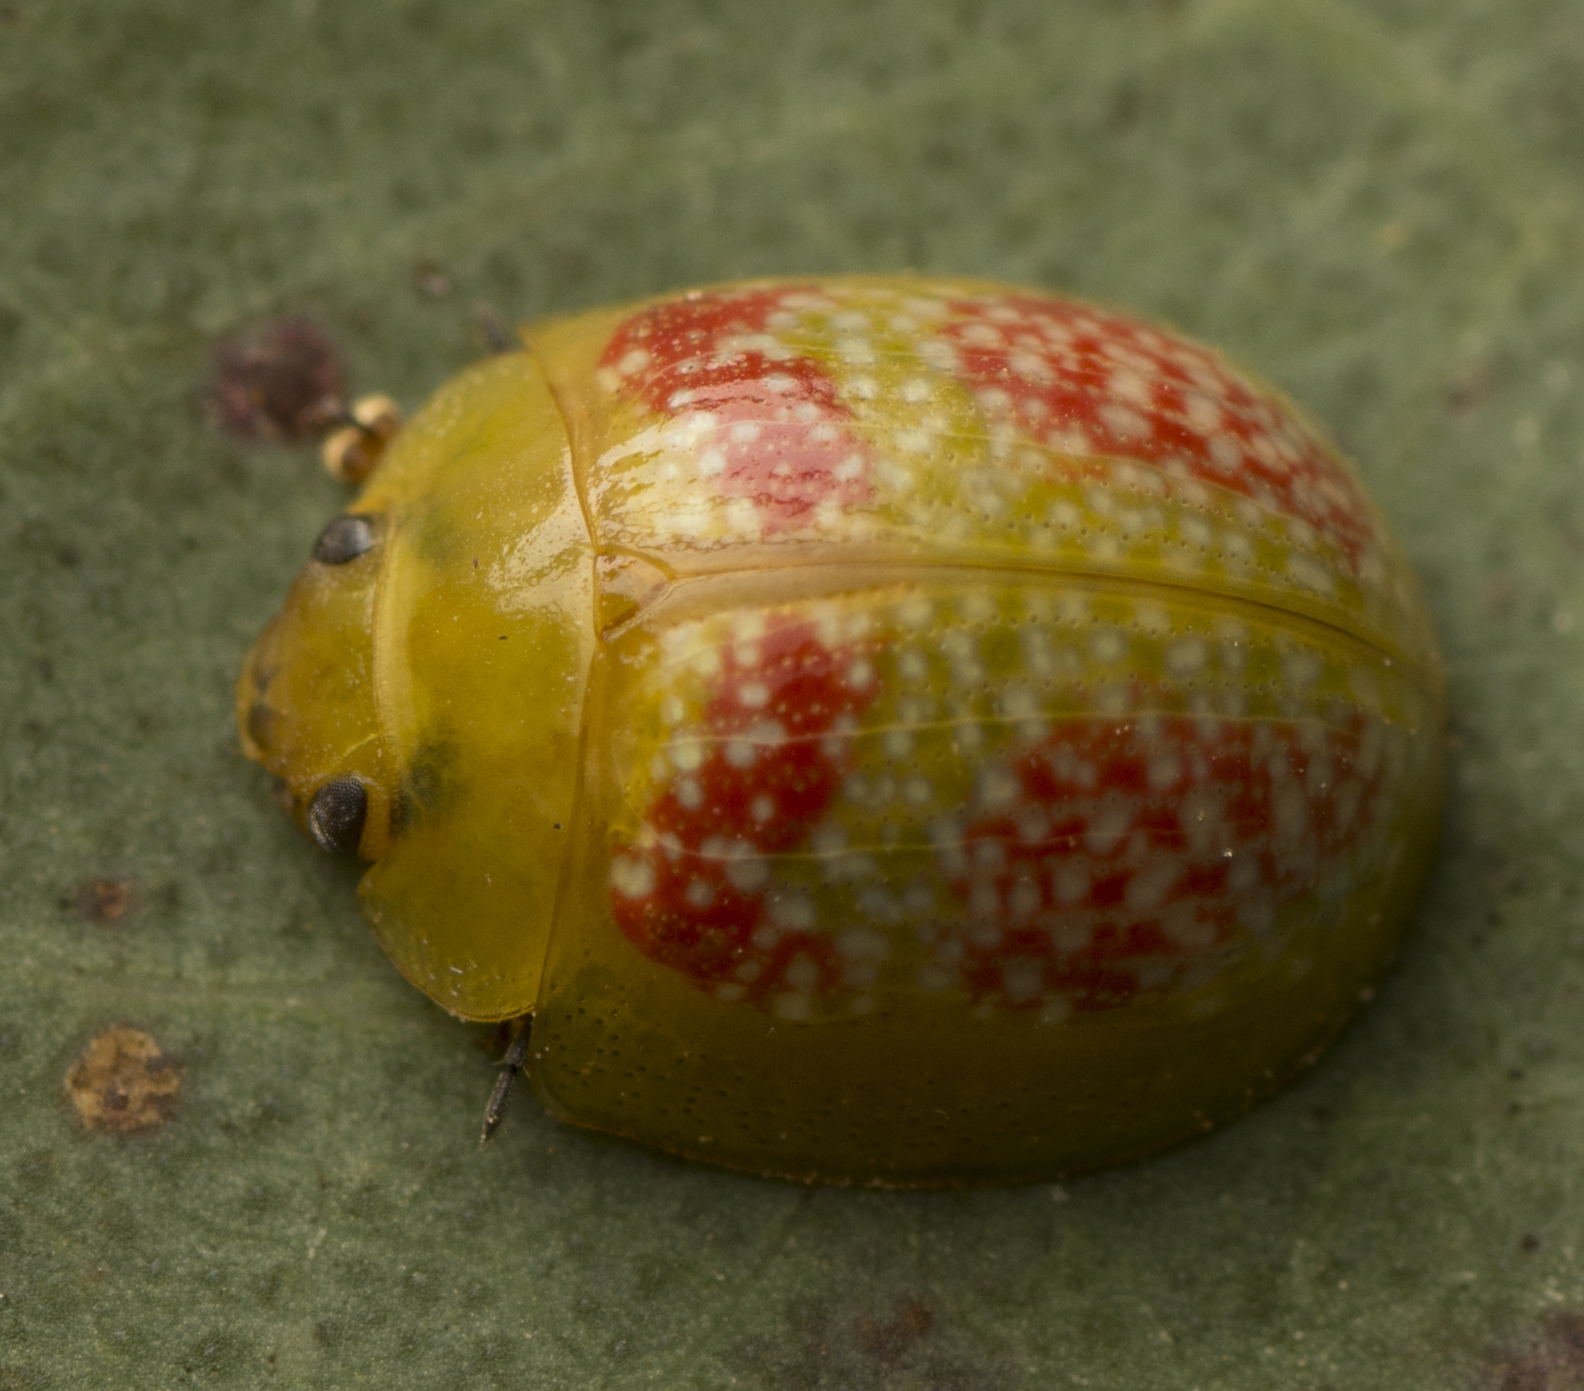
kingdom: Animalia
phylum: Arthropoda
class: Insecta
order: Coleoptera
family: Chrysomelidae
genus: Paropsisterna
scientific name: Paropsisterna
